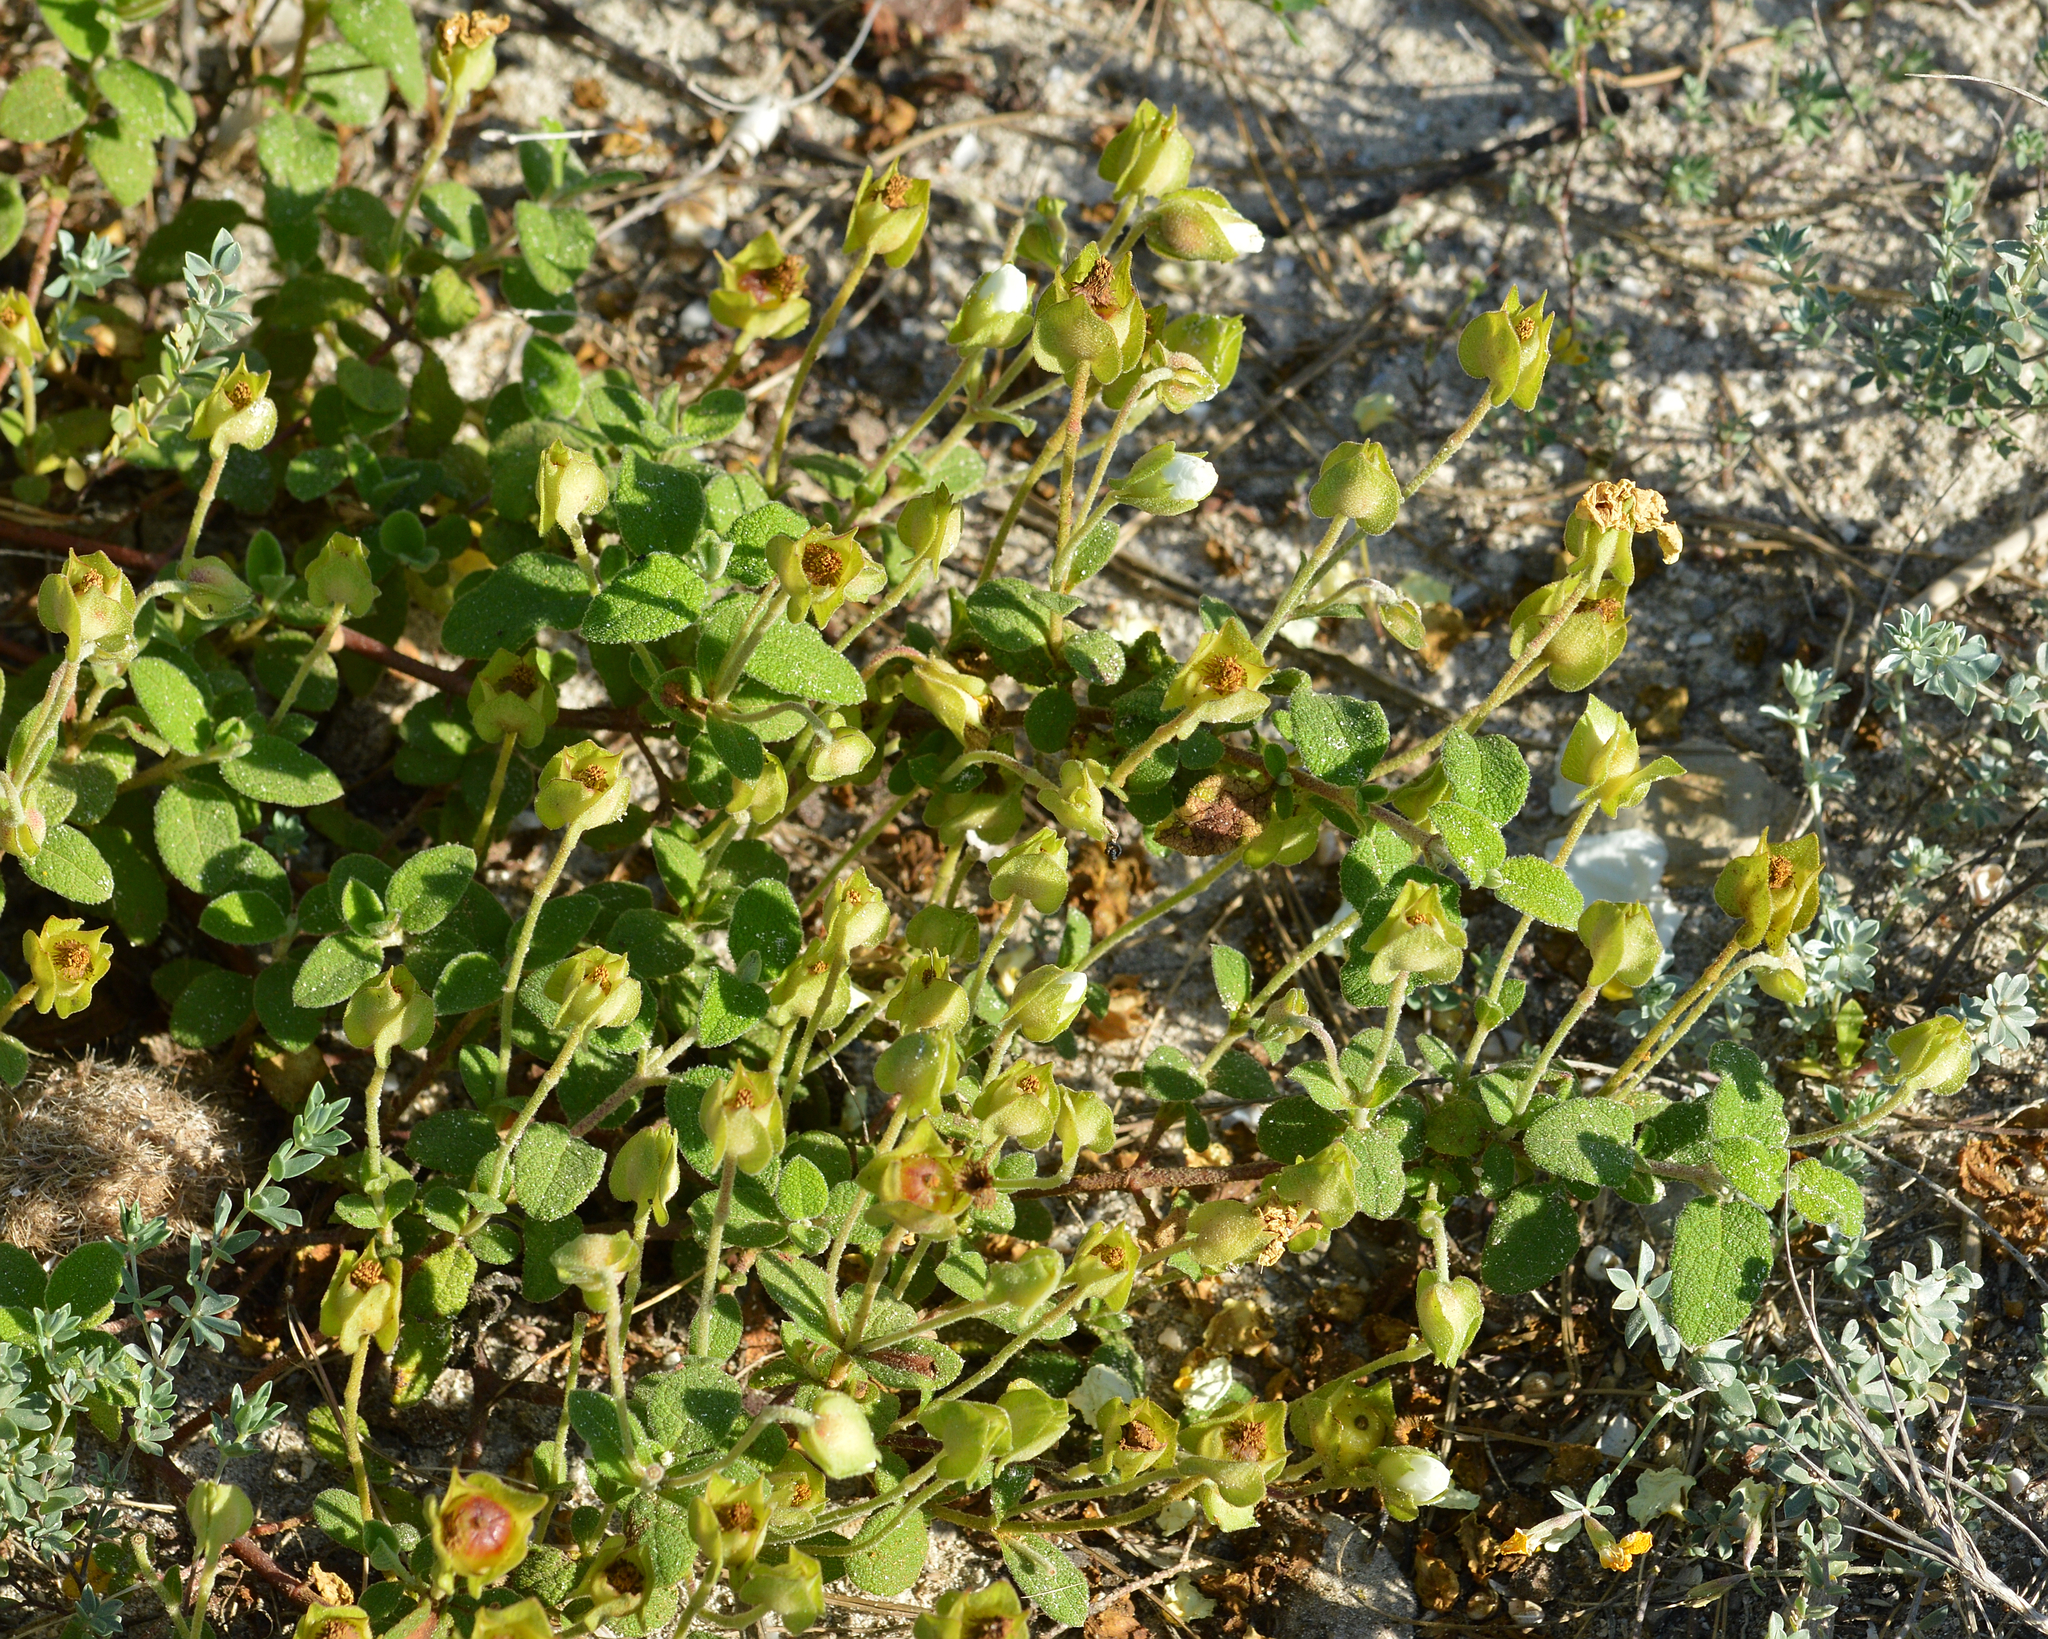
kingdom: Plantae
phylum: Tracheophyta
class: Magnoliopsida
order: Malvales
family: Cistaceae
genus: Cistus
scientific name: Cistus salviifolius
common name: Salvia cistus
